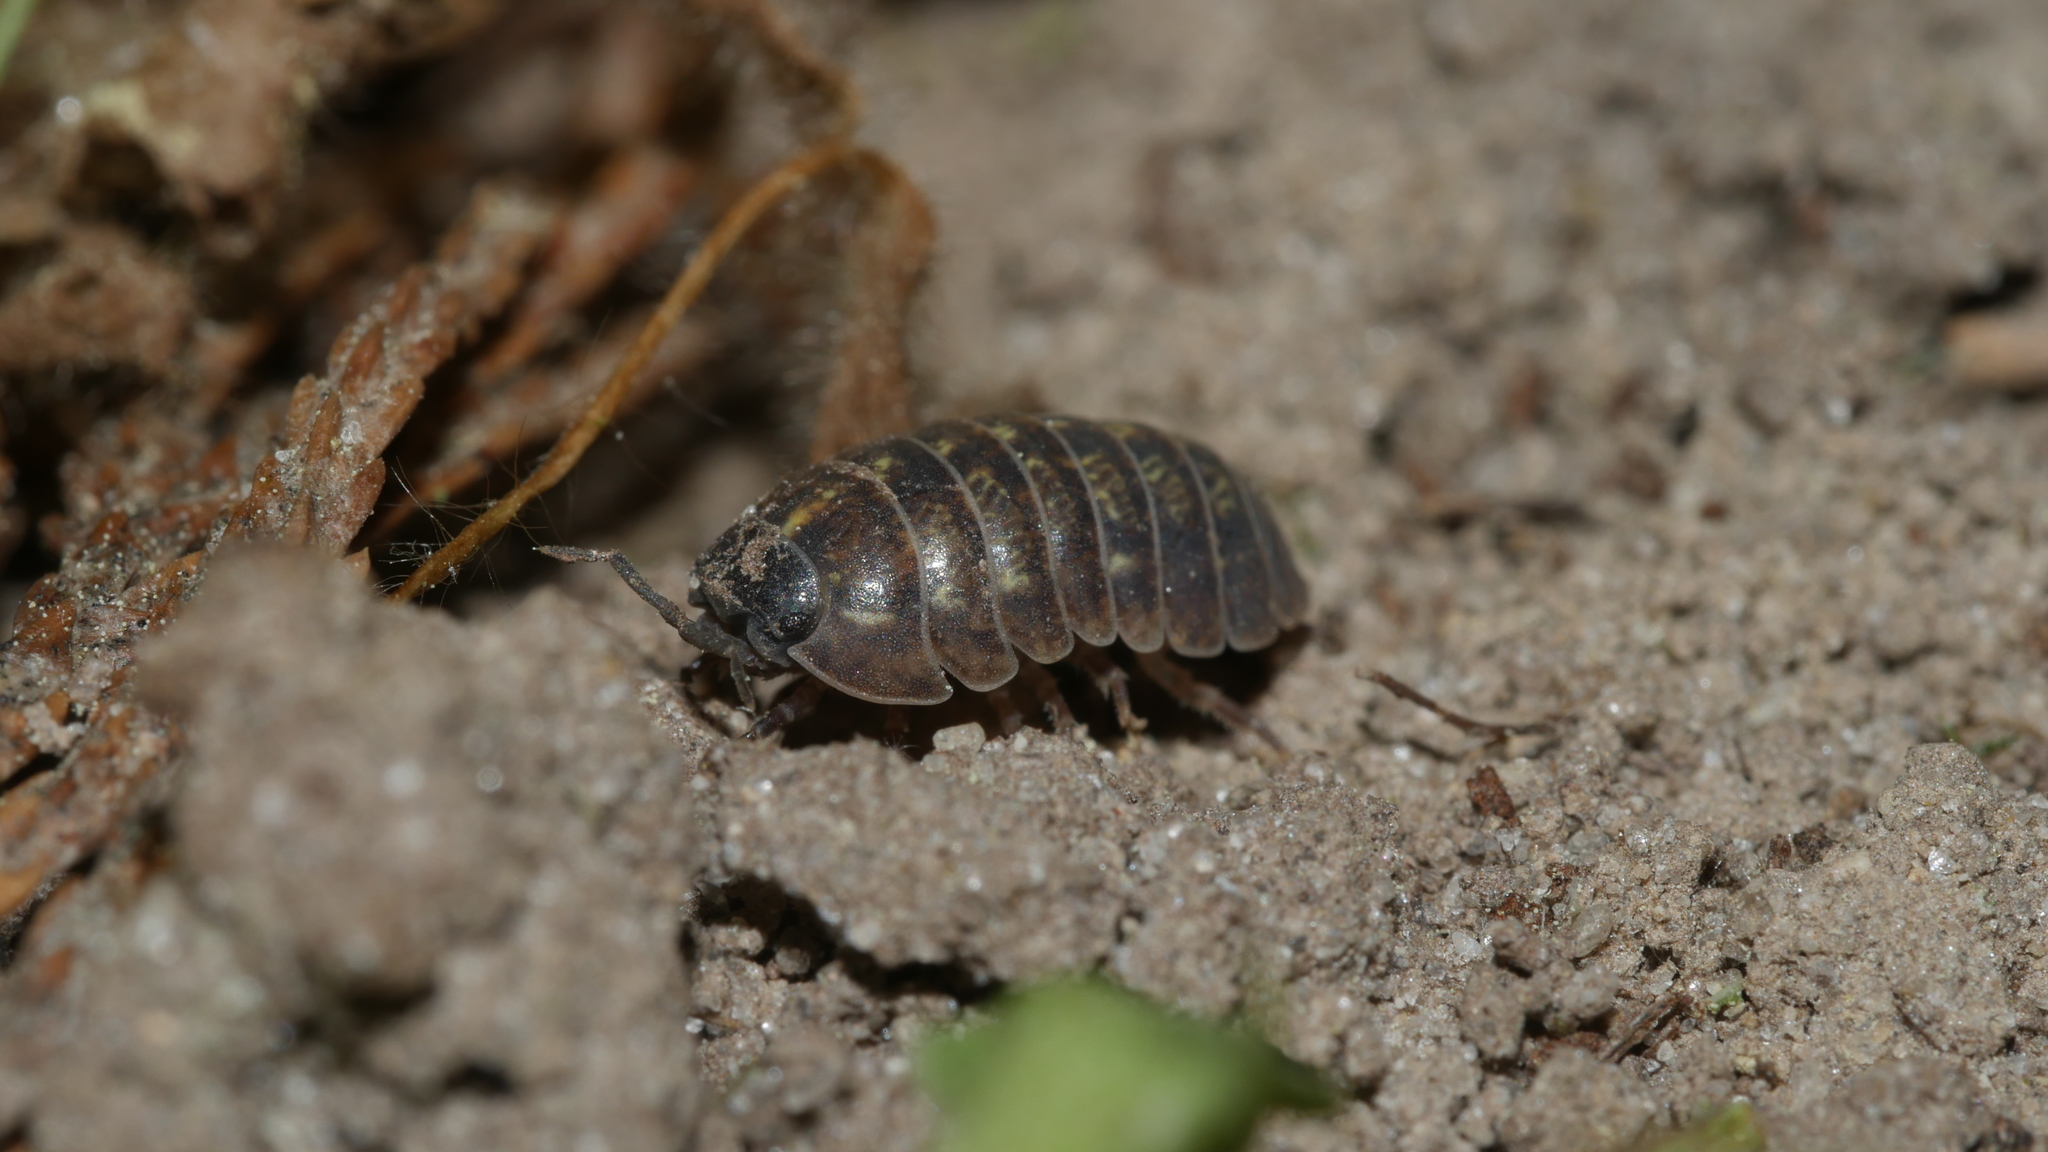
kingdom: Animalia
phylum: Arthropoda
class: Malacostraca
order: Isopoda
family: Armadillidiidae
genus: Armadillidium
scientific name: Armadillidium vulgare
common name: Common pill woodlouse
